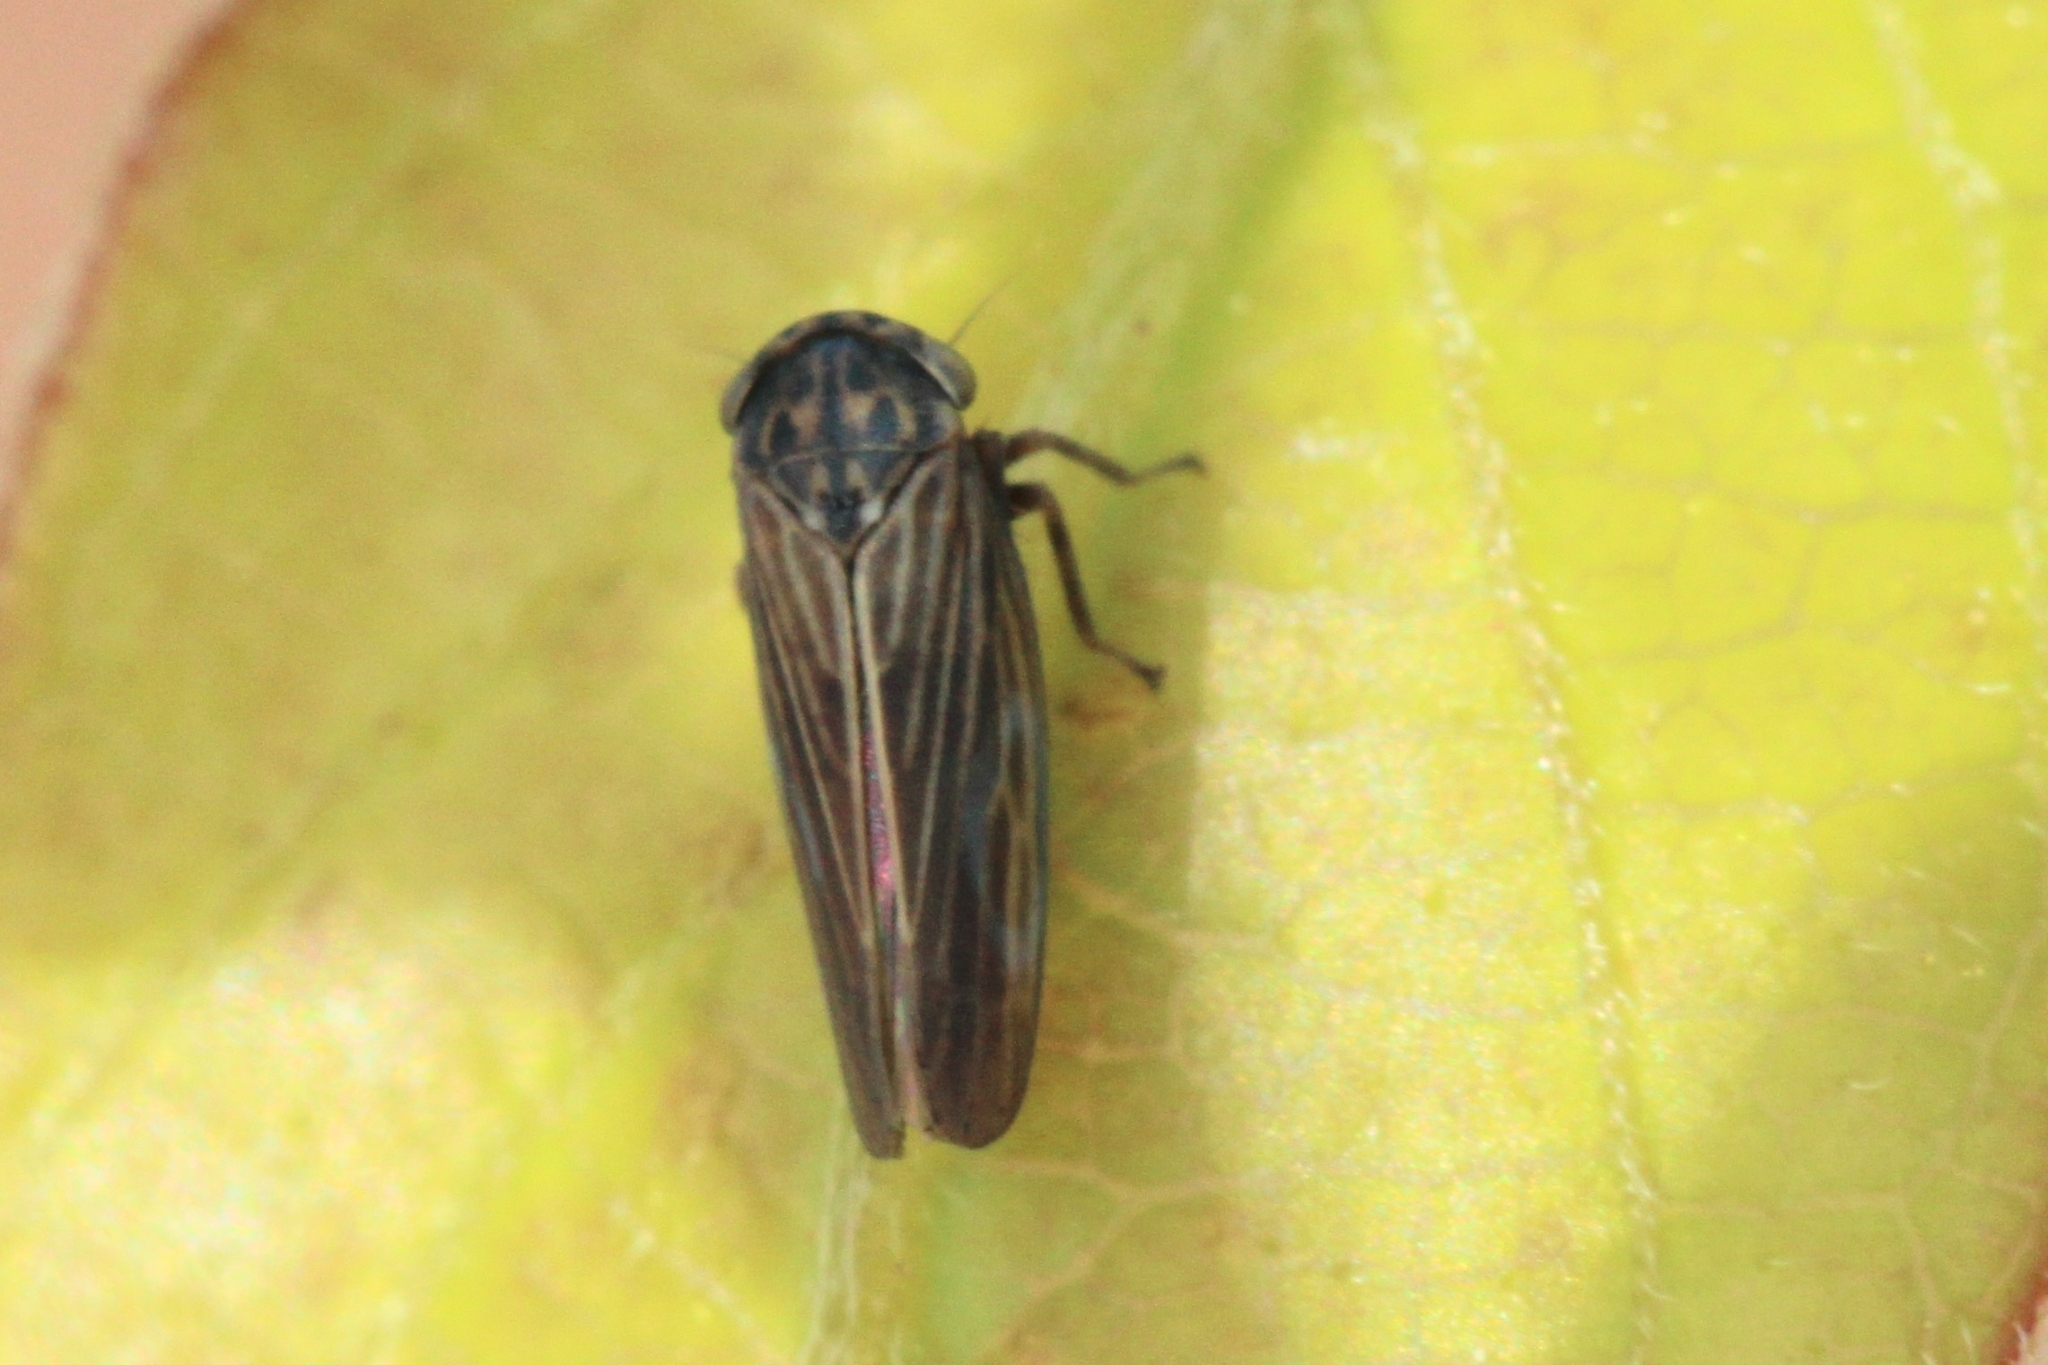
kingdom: Animalia
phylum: Arthropoda
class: Insecta
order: Hemiptera
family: Cicadellidae
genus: Agallia
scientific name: Agallia constricta
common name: The constricted leafhopper
